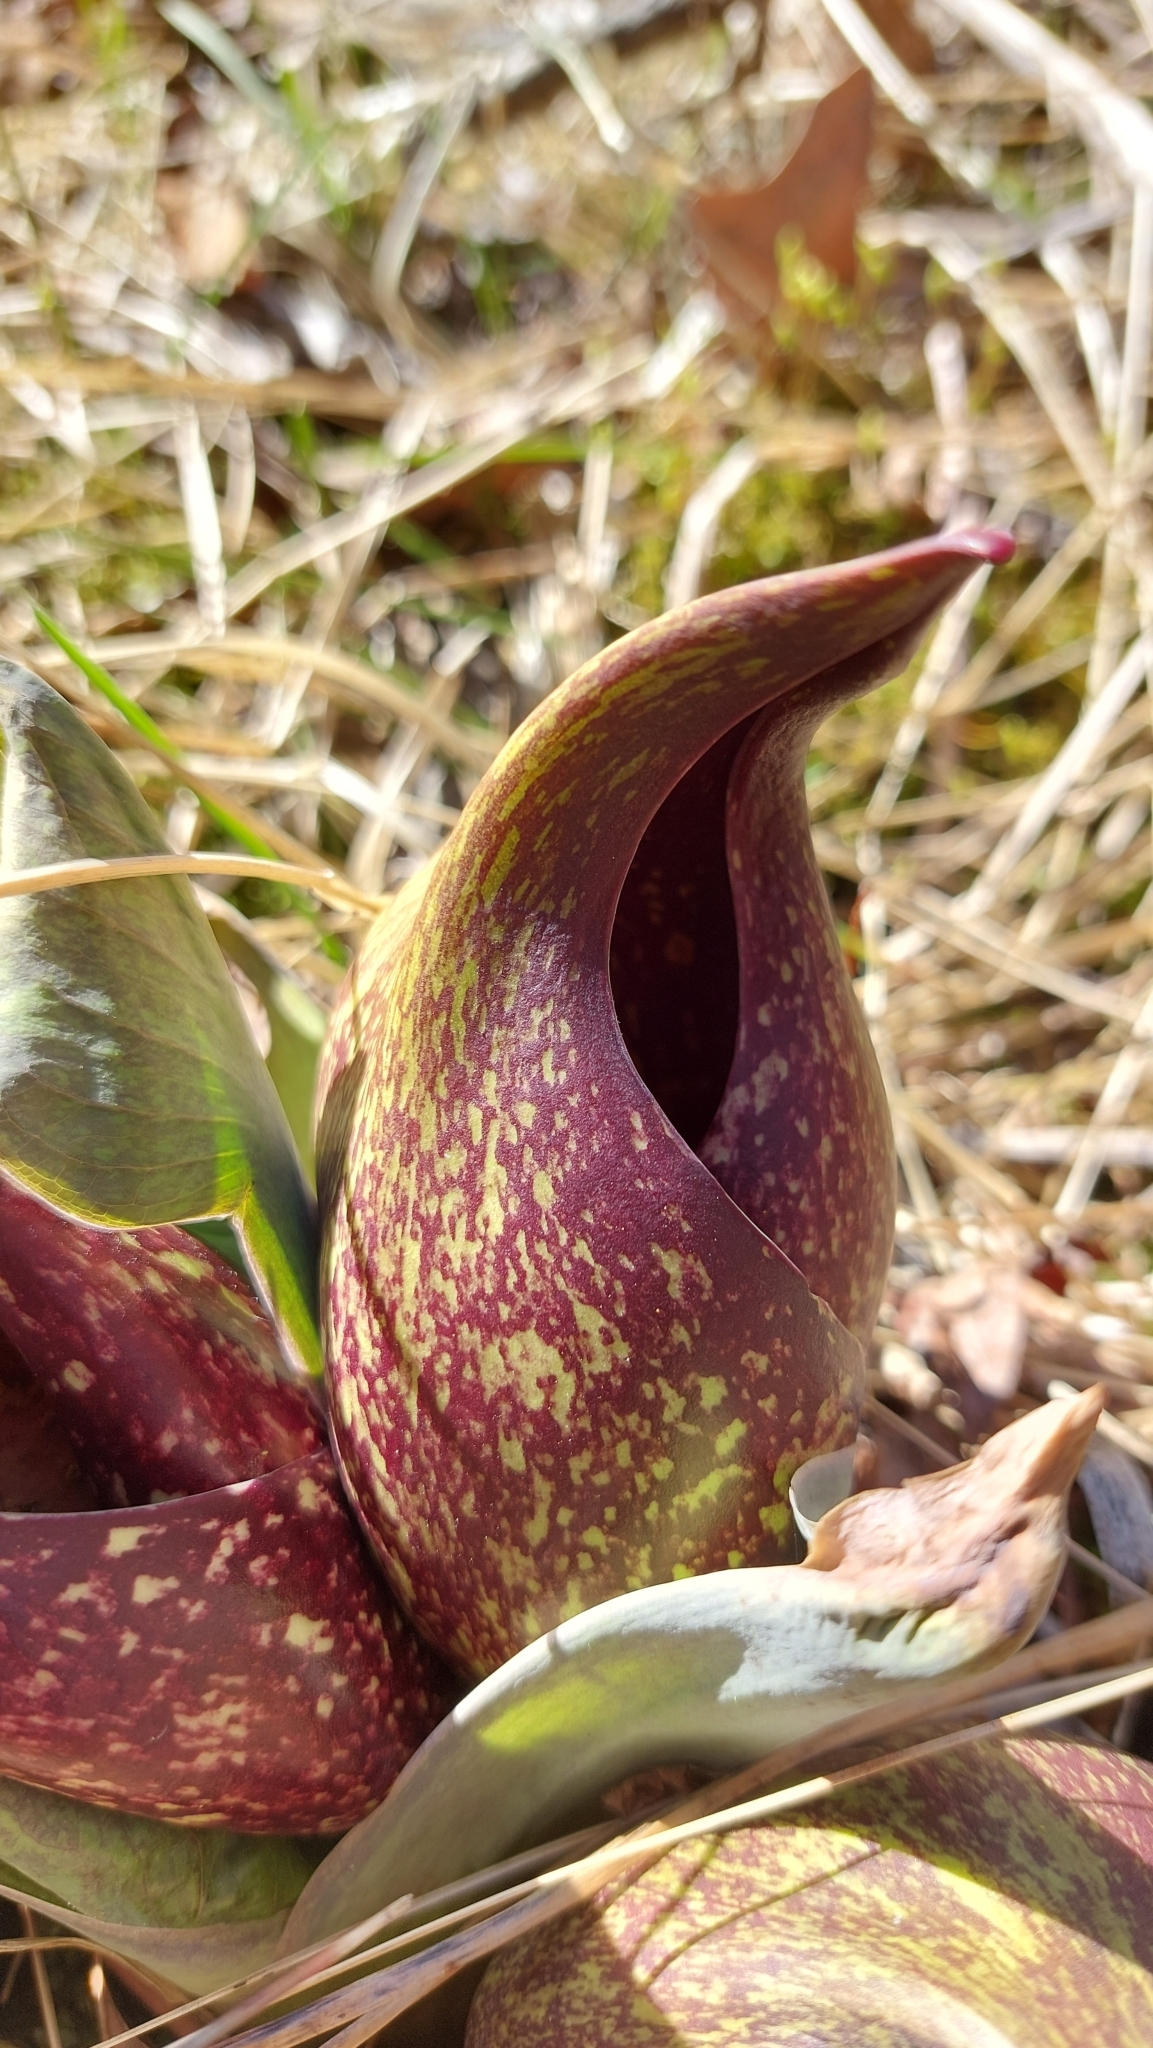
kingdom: Plantae
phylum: Tracheophyta
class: Liliopsida
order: Alismatales
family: Araceae
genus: Symplocarpus
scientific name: Symplocarpus foetidus
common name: Eastern skunk cabbage
